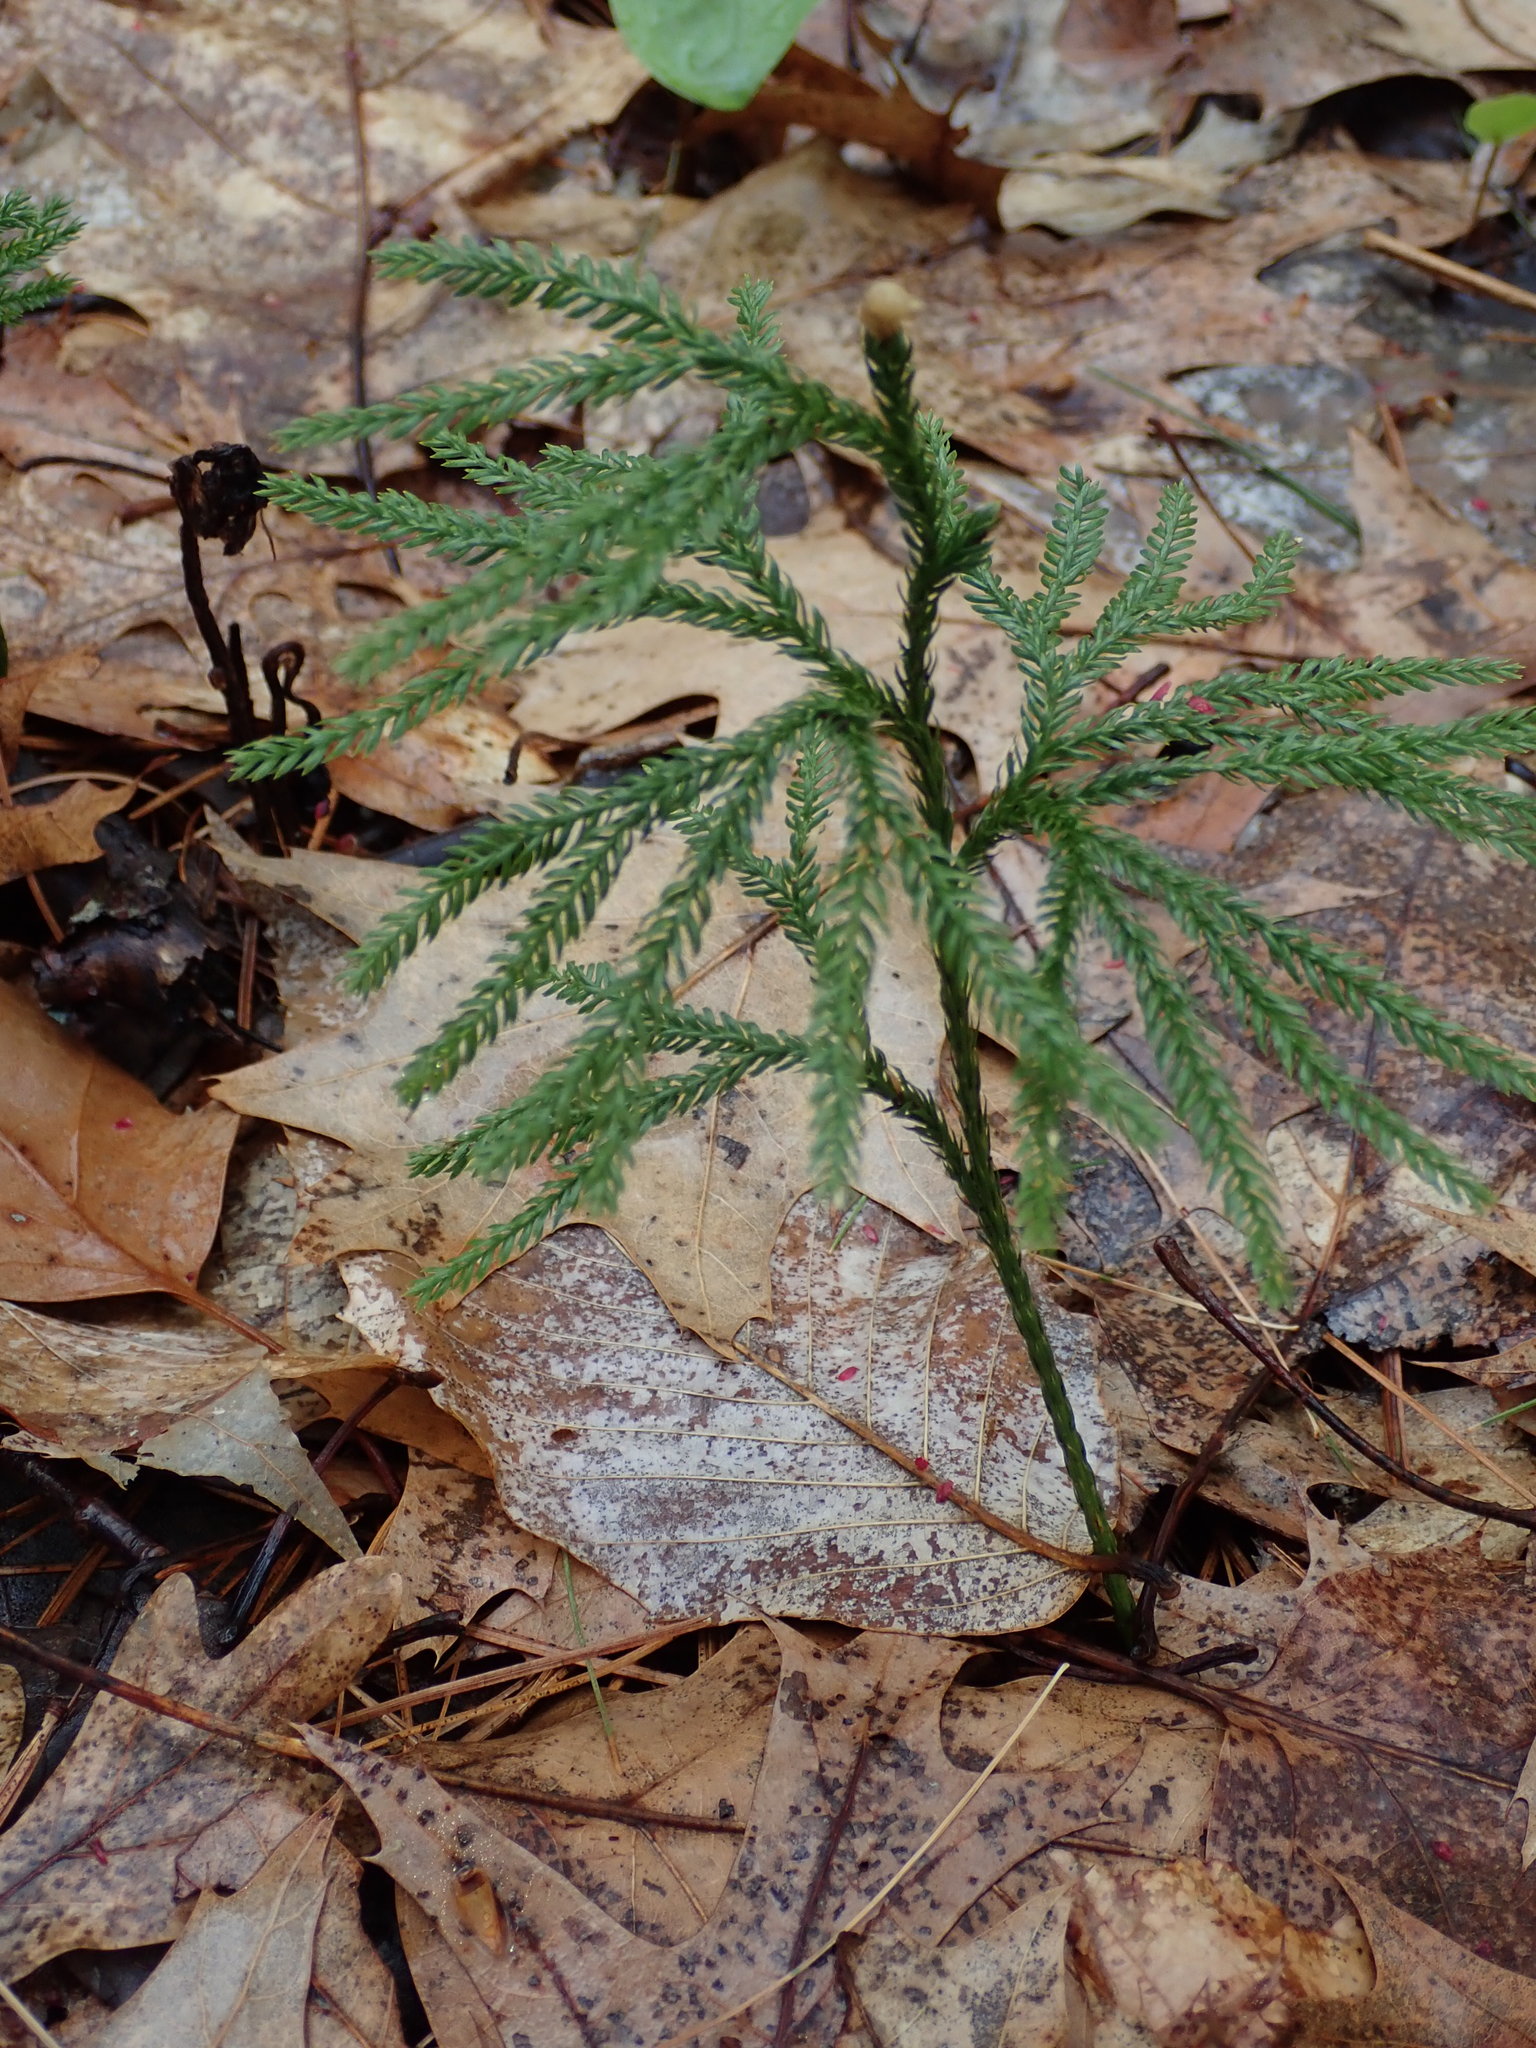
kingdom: Plantae
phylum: Tracheophyta
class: Lycopodiopsida
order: Lycopodiales
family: Lycopodiaceae
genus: Dendrolycopodium
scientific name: Dendrolycopodium obscurum
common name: Common ground-pine
